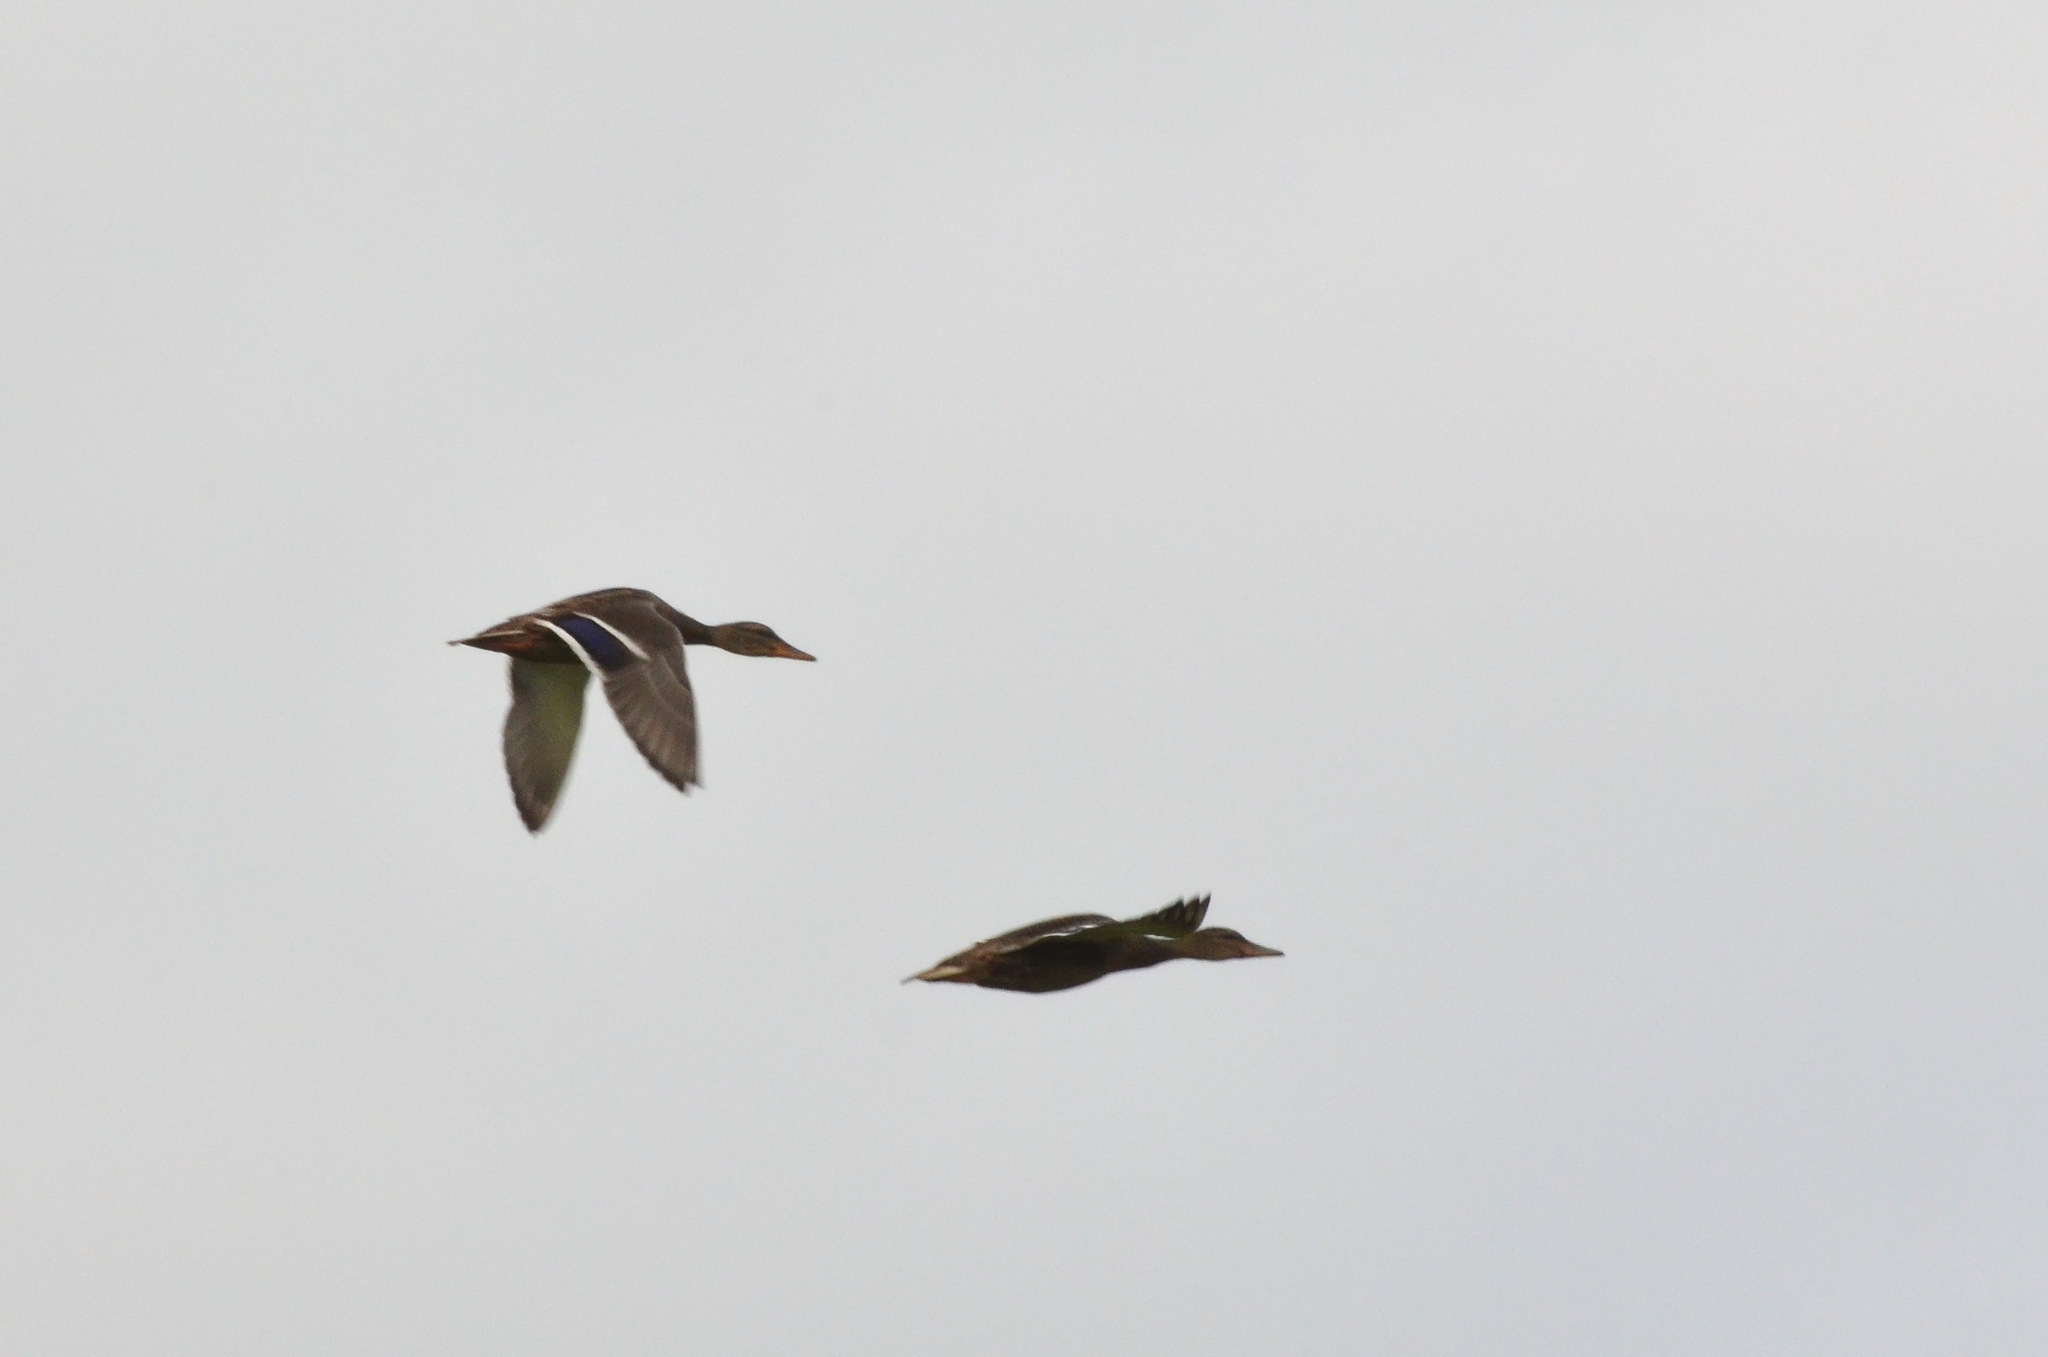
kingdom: Animalia
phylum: Chordata
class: Aves
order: Anseriformes
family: Anatidae
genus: Anas
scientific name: Anas platyrhynchos
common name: Mallard
